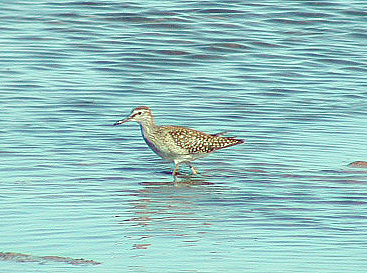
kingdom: Animalia
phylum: Chordata
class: Aves
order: Charadriiformes
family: Scolopacidae
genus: Tringa
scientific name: Tringa glareola
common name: Wood sandpiper
